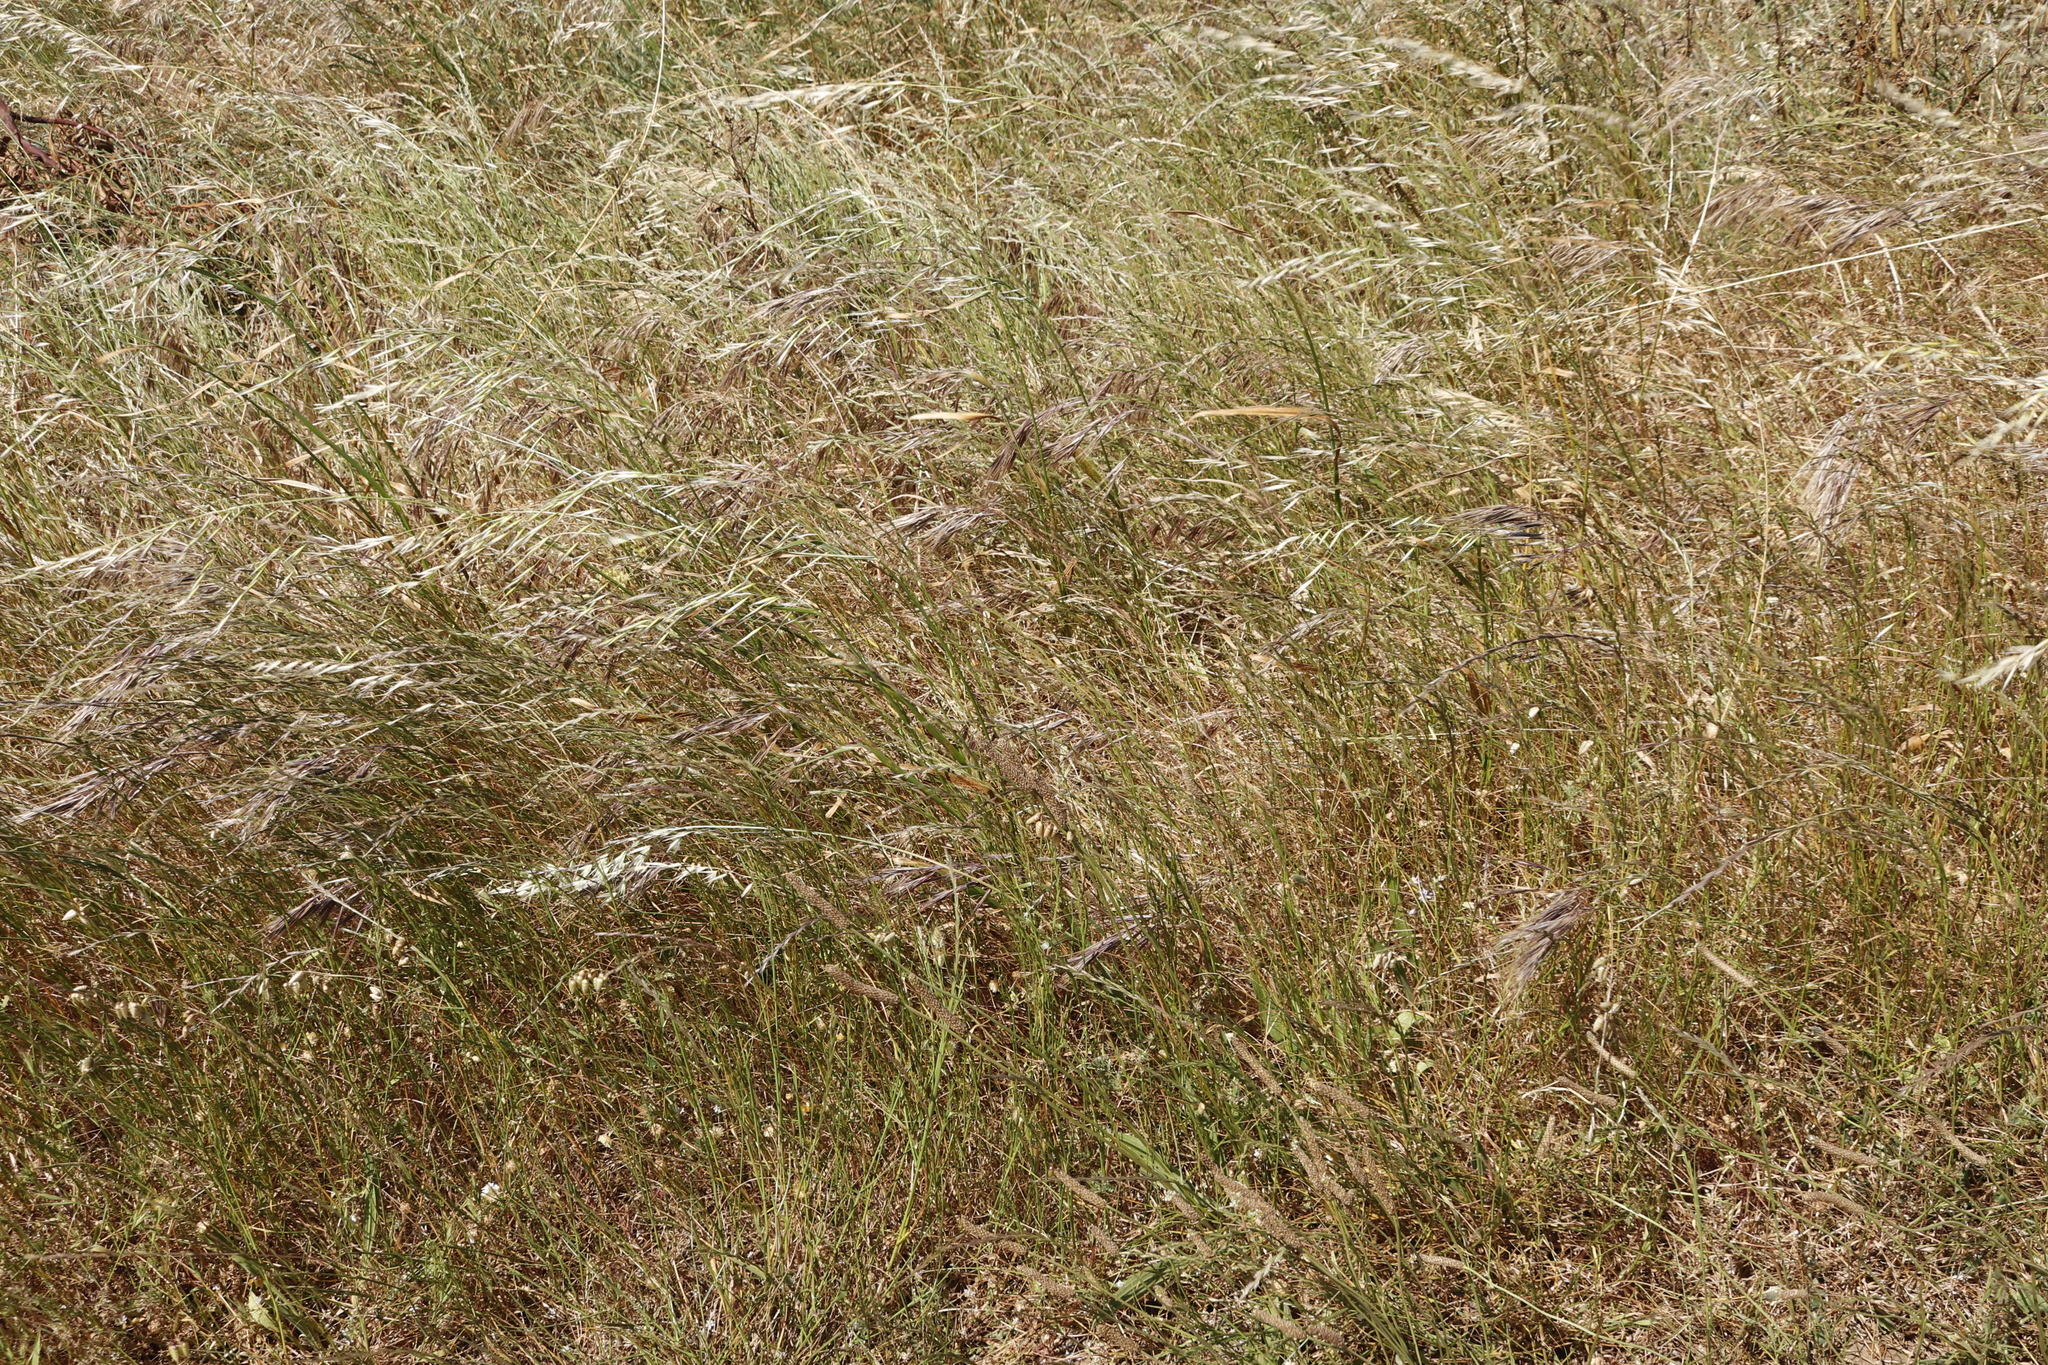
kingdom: Plantae
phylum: Tracheophyta
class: Liliopsida
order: Poales
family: Poaceae
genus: Avena
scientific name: Avena fatua
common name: Wild oat
